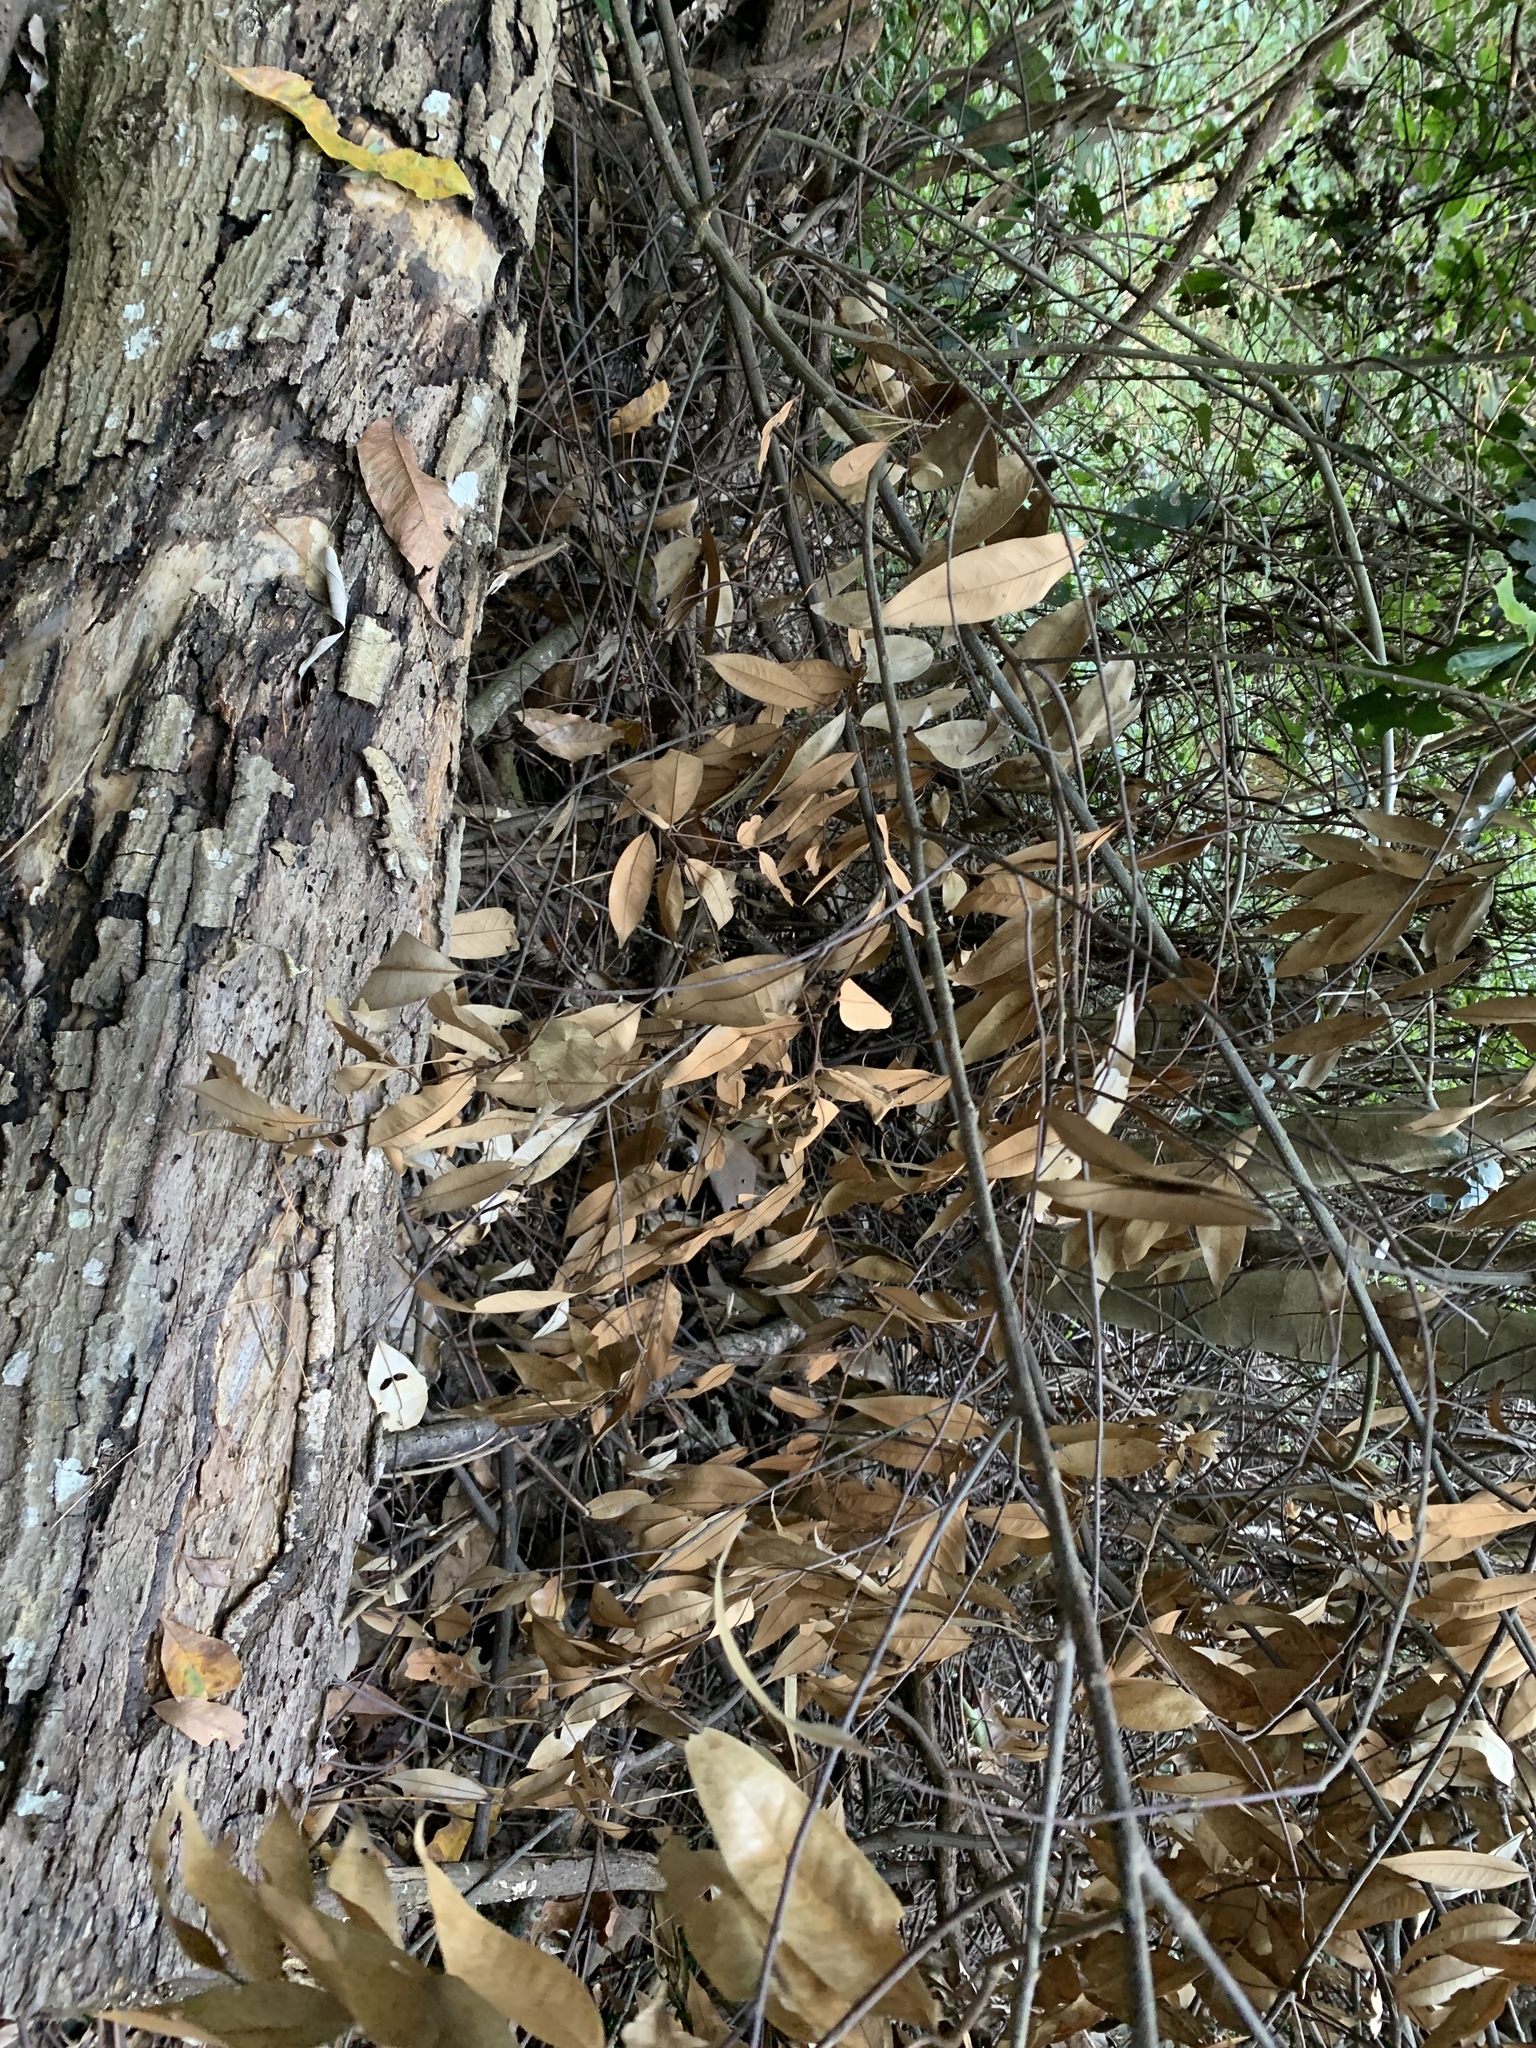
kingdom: Plantae
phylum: Tracheophyta
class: Magnoliopsida
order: Fagales
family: Fagaceae
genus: Castanopsis
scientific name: Castanopsis fargesii
